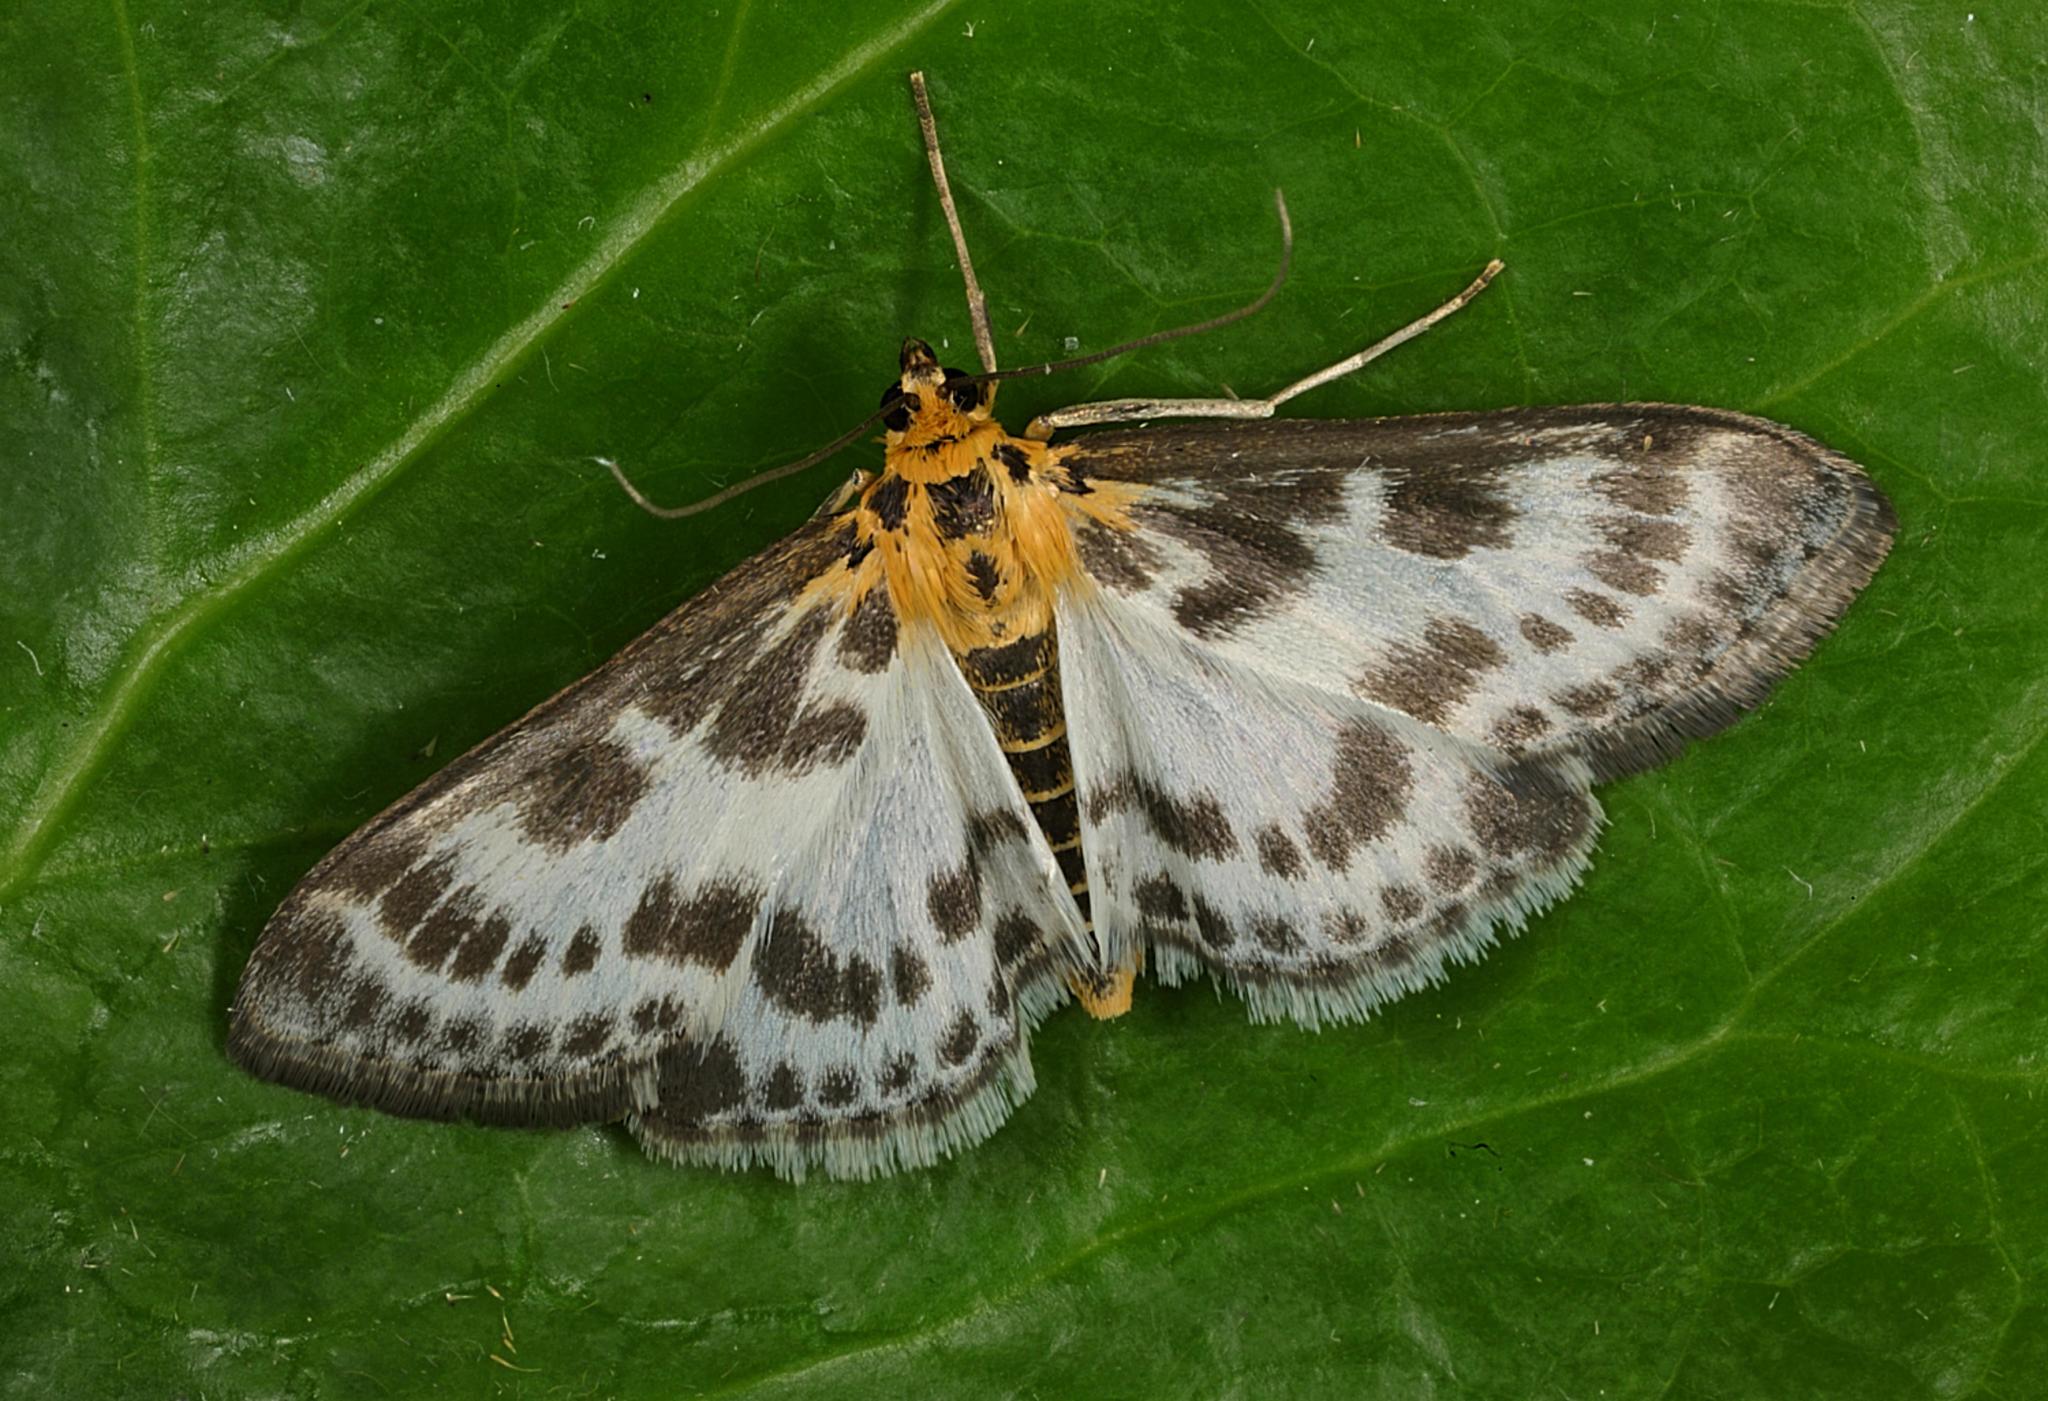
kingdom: Animalia
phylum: Arthropoda
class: Insecta
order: Lepidoptera
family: Crambidae
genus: Anania
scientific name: Anania hortulata
